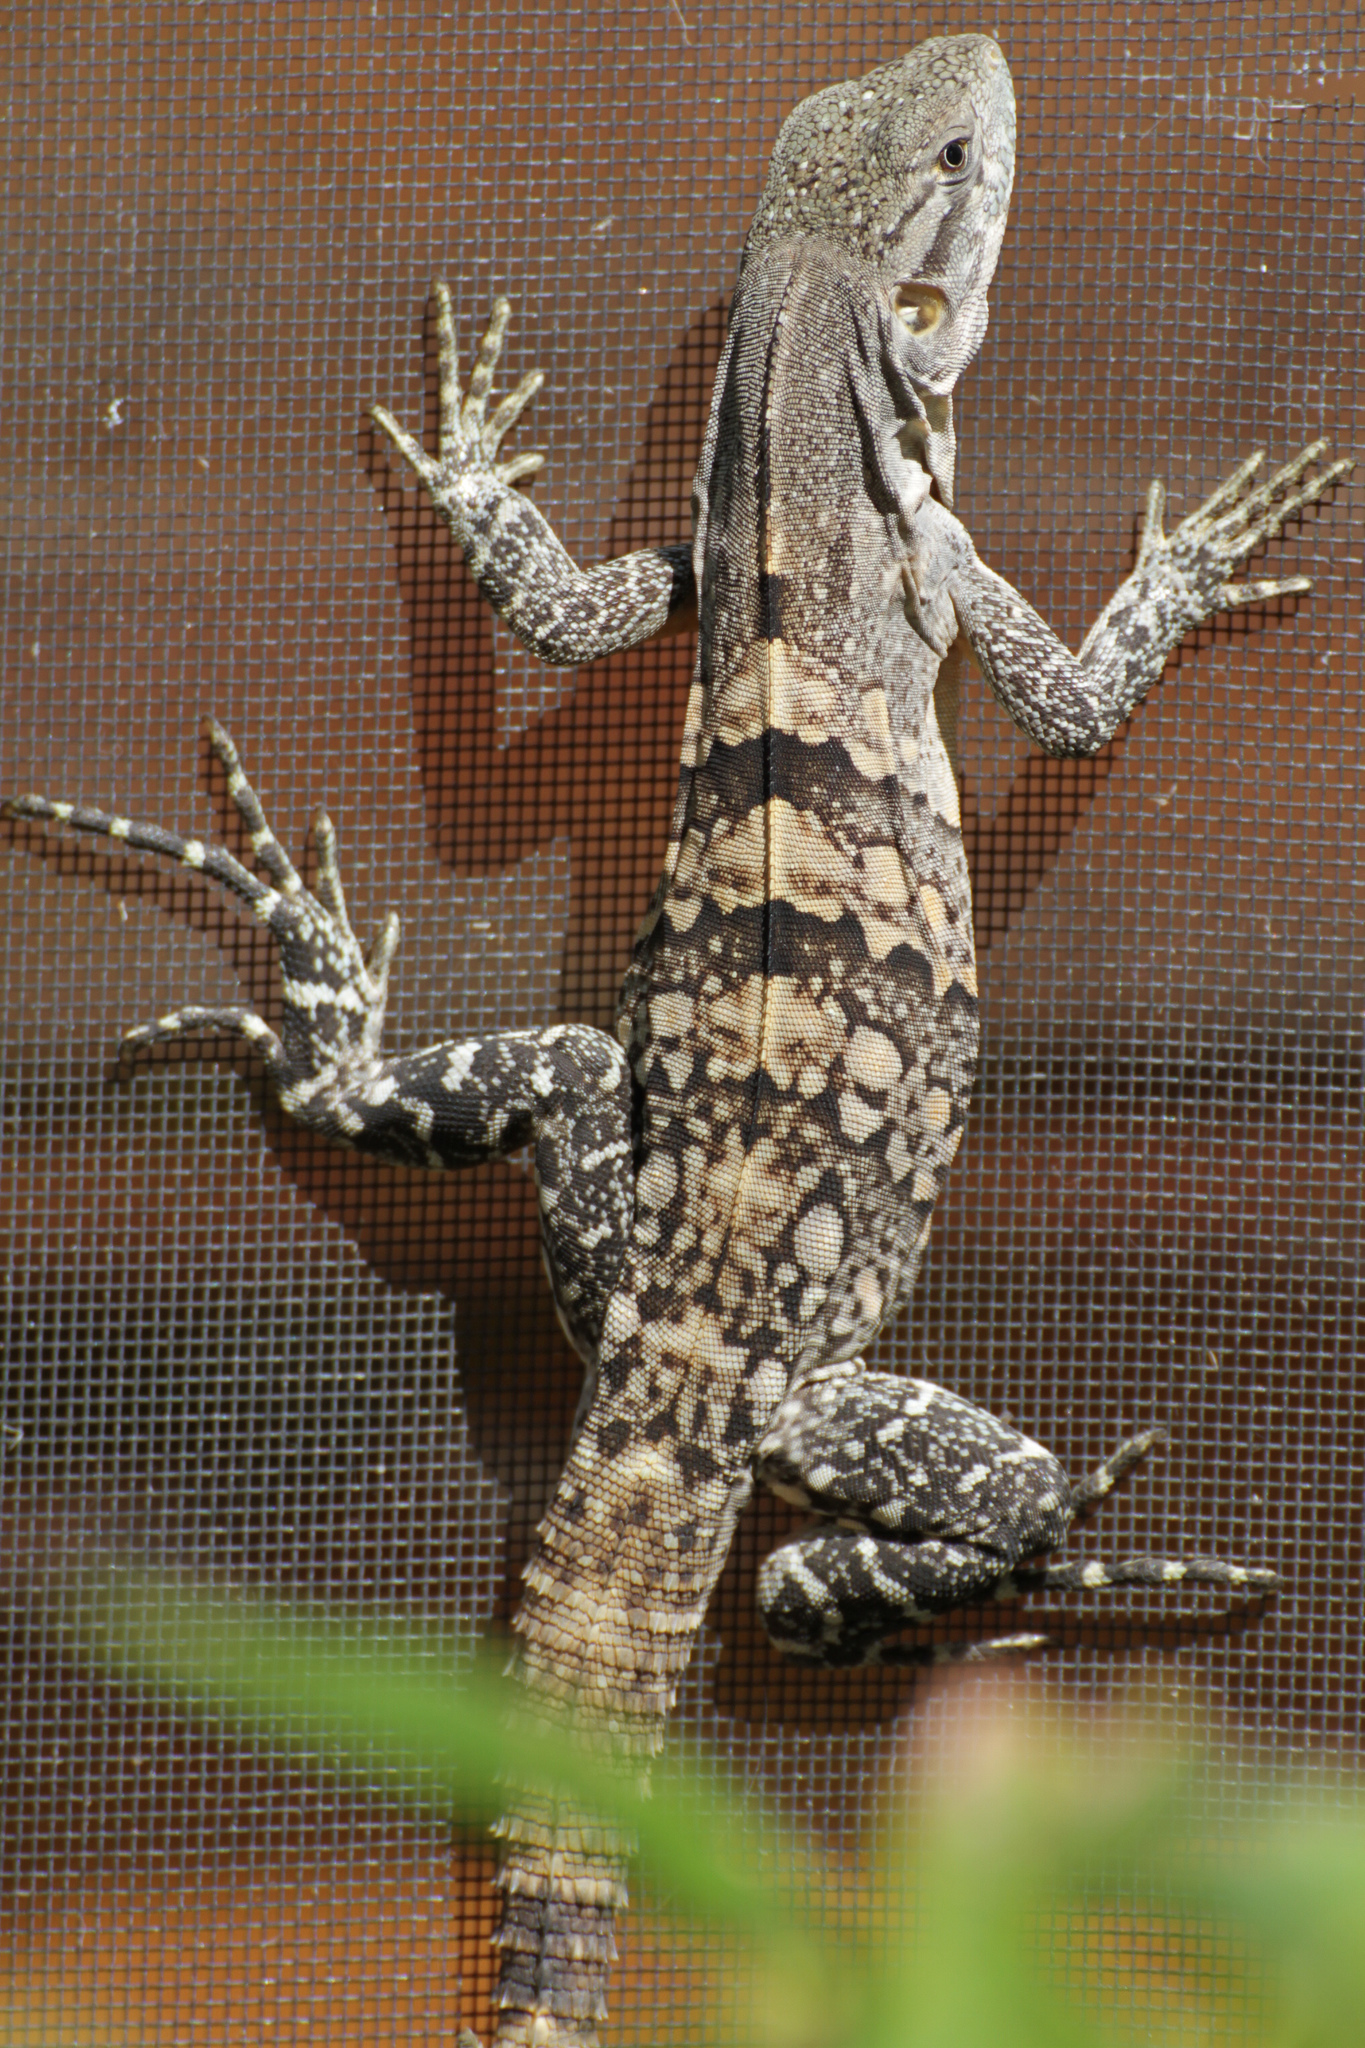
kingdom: Animalia
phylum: Chordata
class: Squamata
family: Iguanidae
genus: Ctenosaura
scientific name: Ctenosaura similis
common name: Black spiny-tailed iguana
